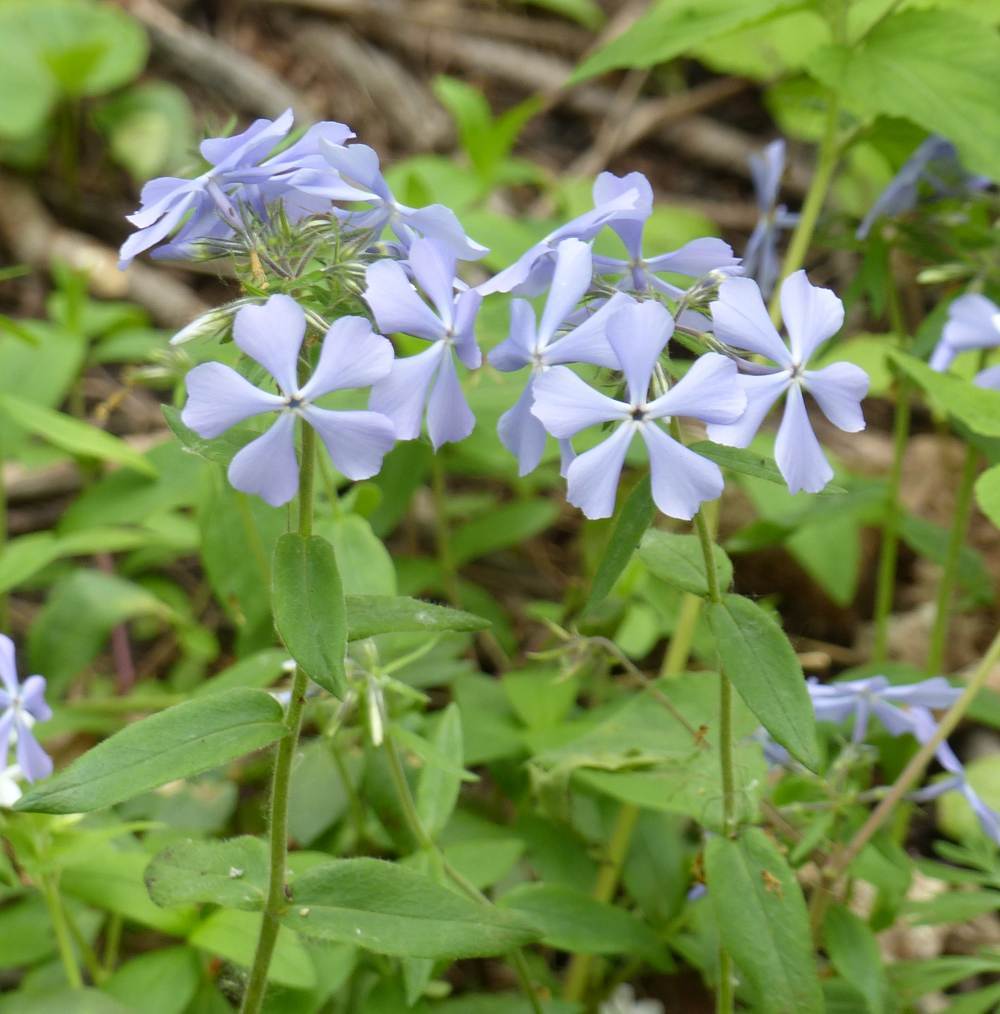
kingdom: Plantae
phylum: Tracheophyta
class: Magnoliopsida
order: Ericales
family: Polemoniaceae
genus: Phlox
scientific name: Phlox divaricata
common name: Blue phlox
